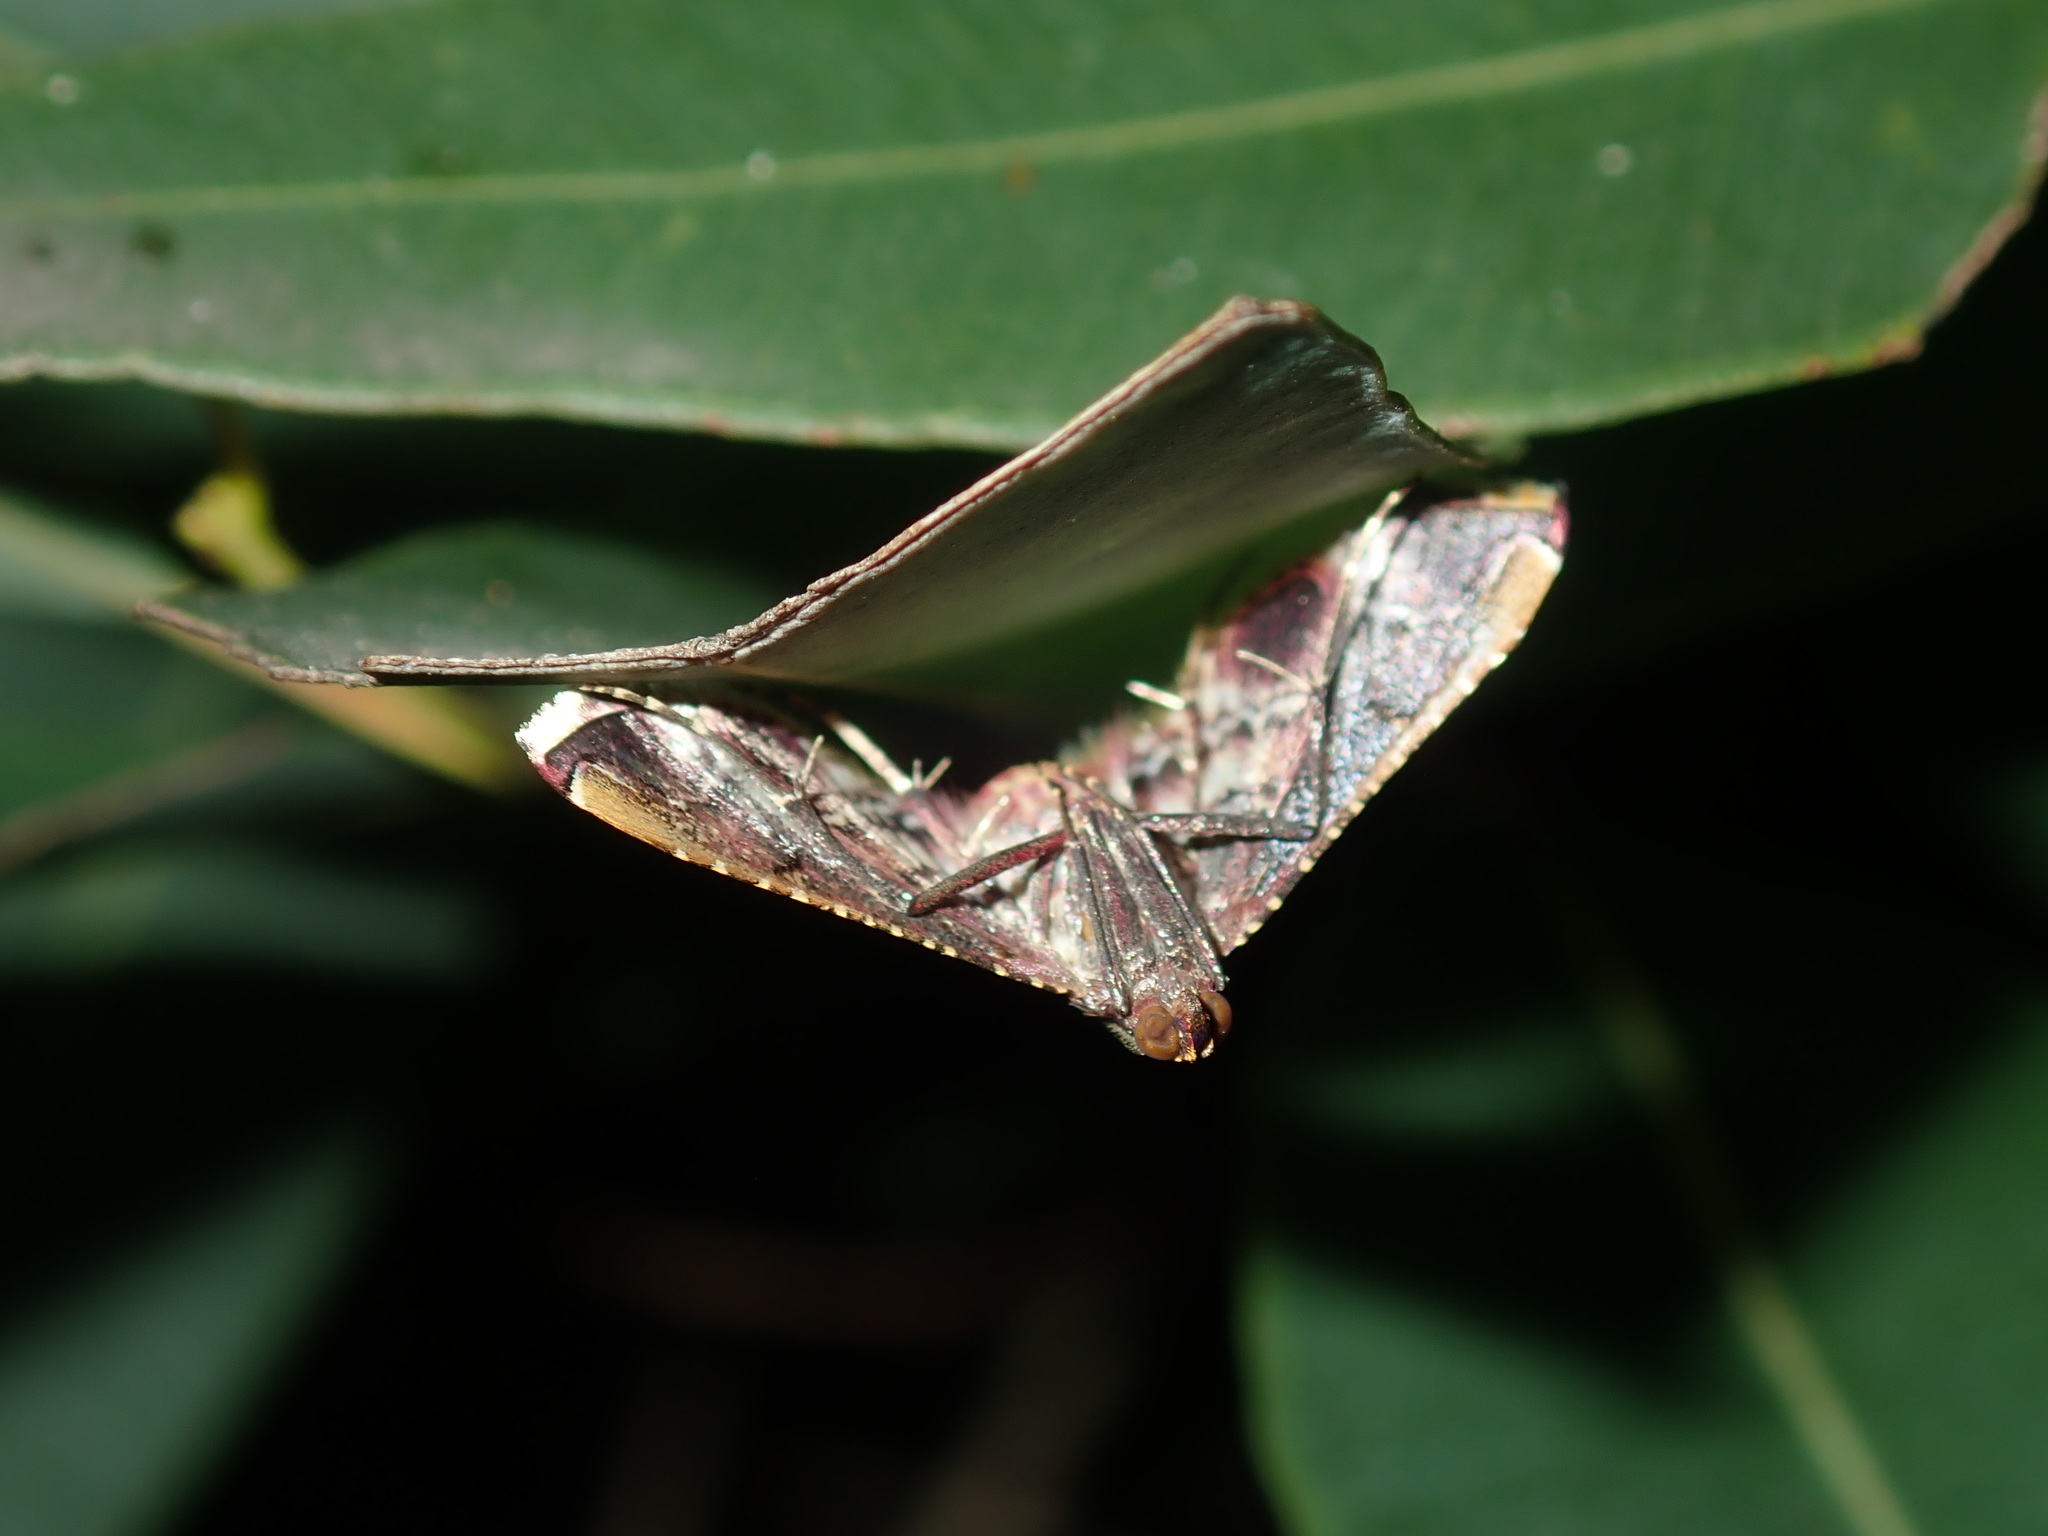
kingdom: Animalia
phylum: Arthropoda
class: Insecta
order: Lepidoptera
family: Pyralidae
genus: Endotricha
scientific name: Endotricha mesenterialis
